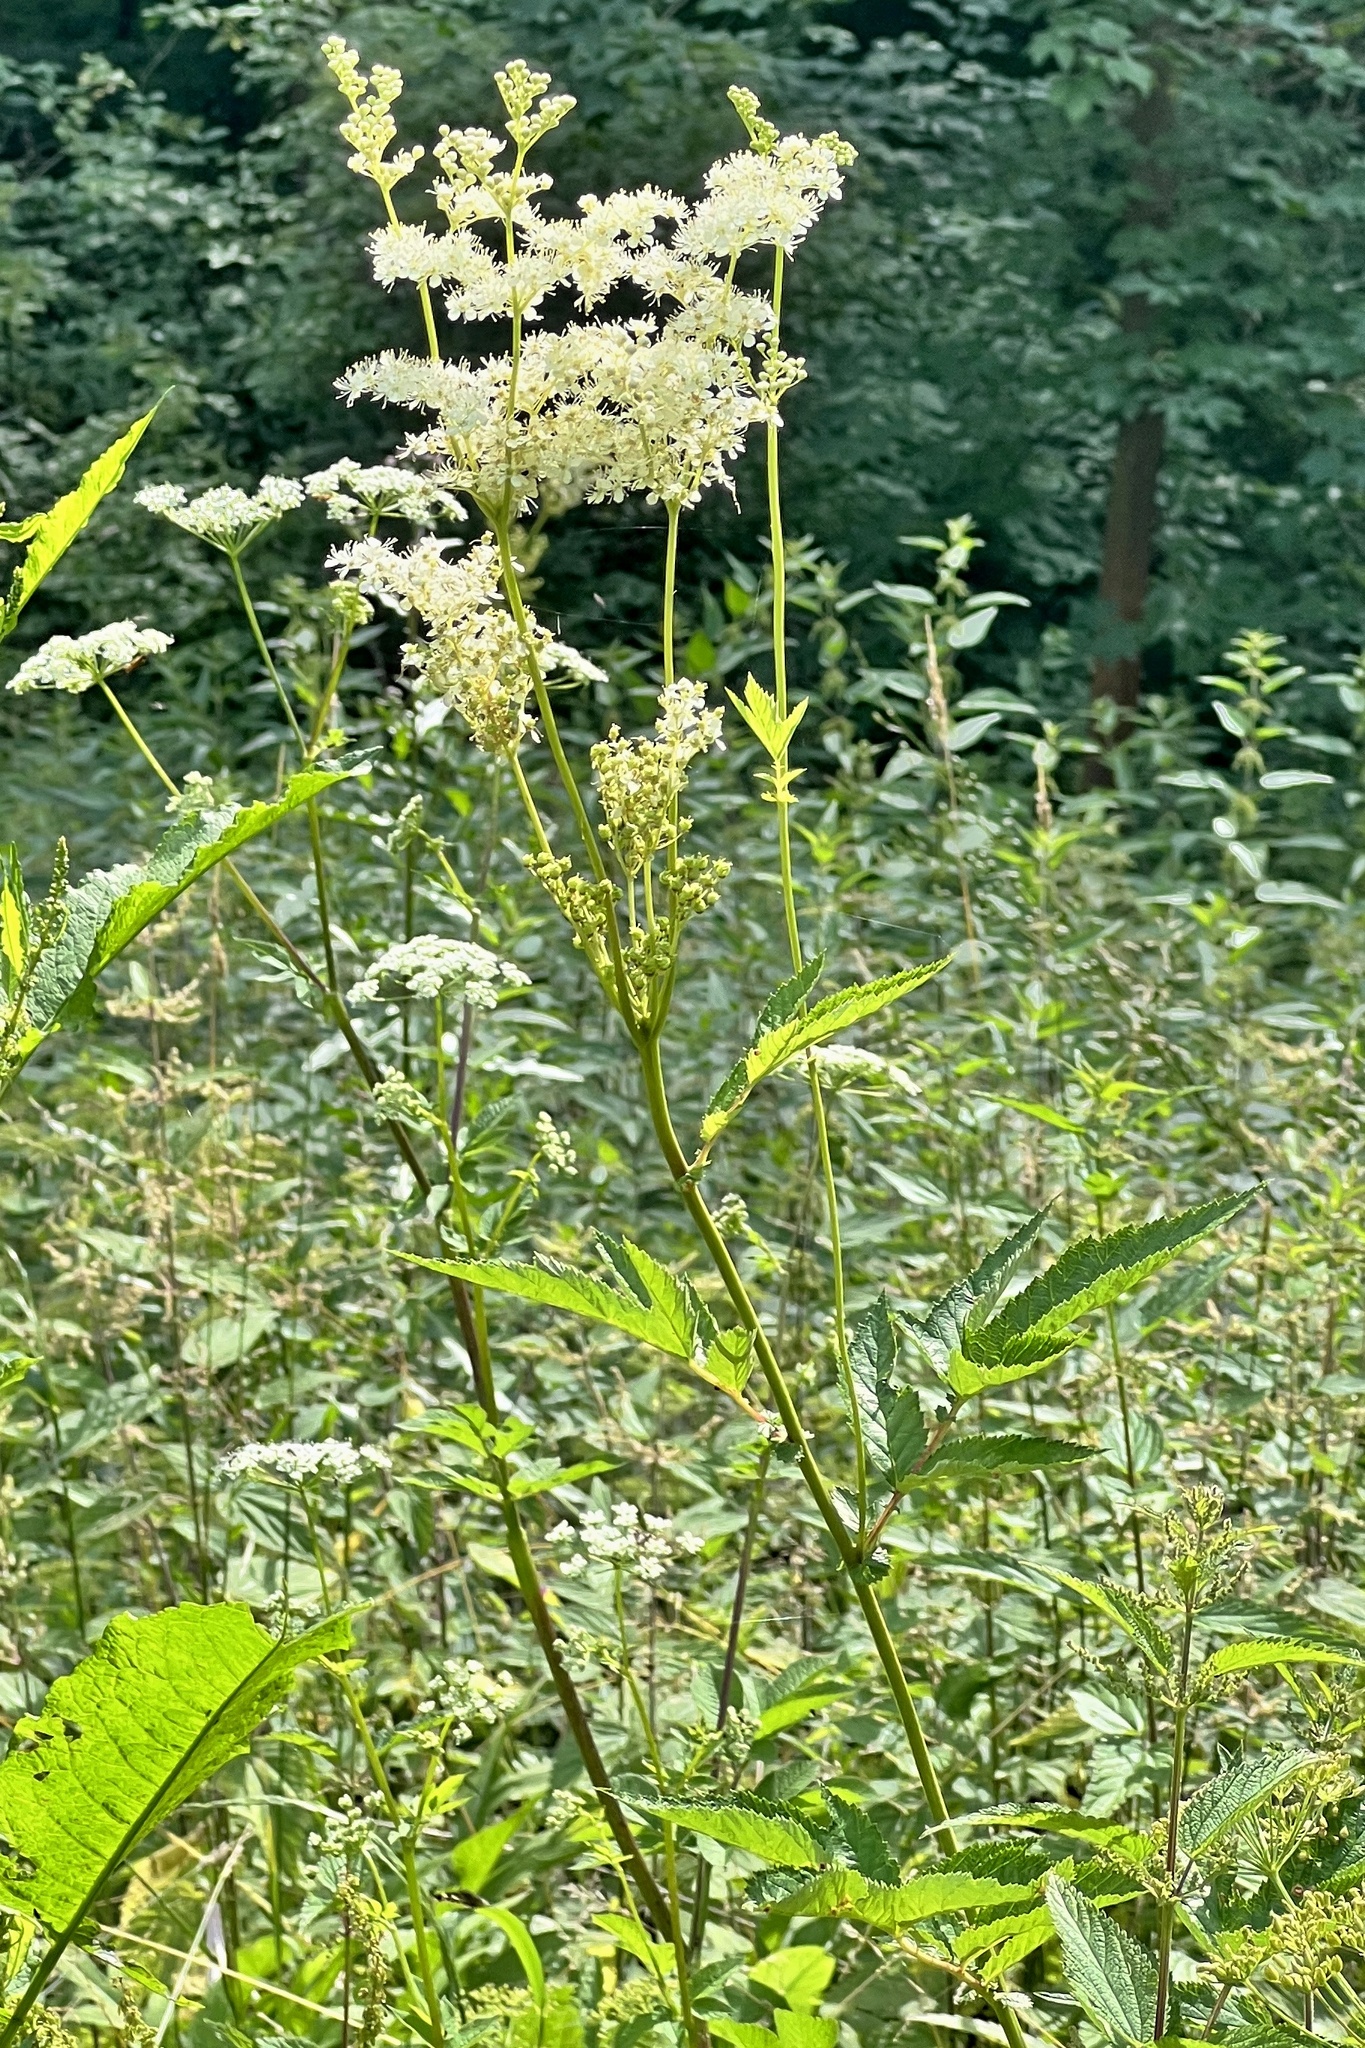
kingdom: Plantae
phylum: Tracheophyta
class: Magnoliopsida
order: Rosales
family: Rosaceae
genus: Filipendula
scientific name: Filipendula ulmaria
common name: Meadowsweet
